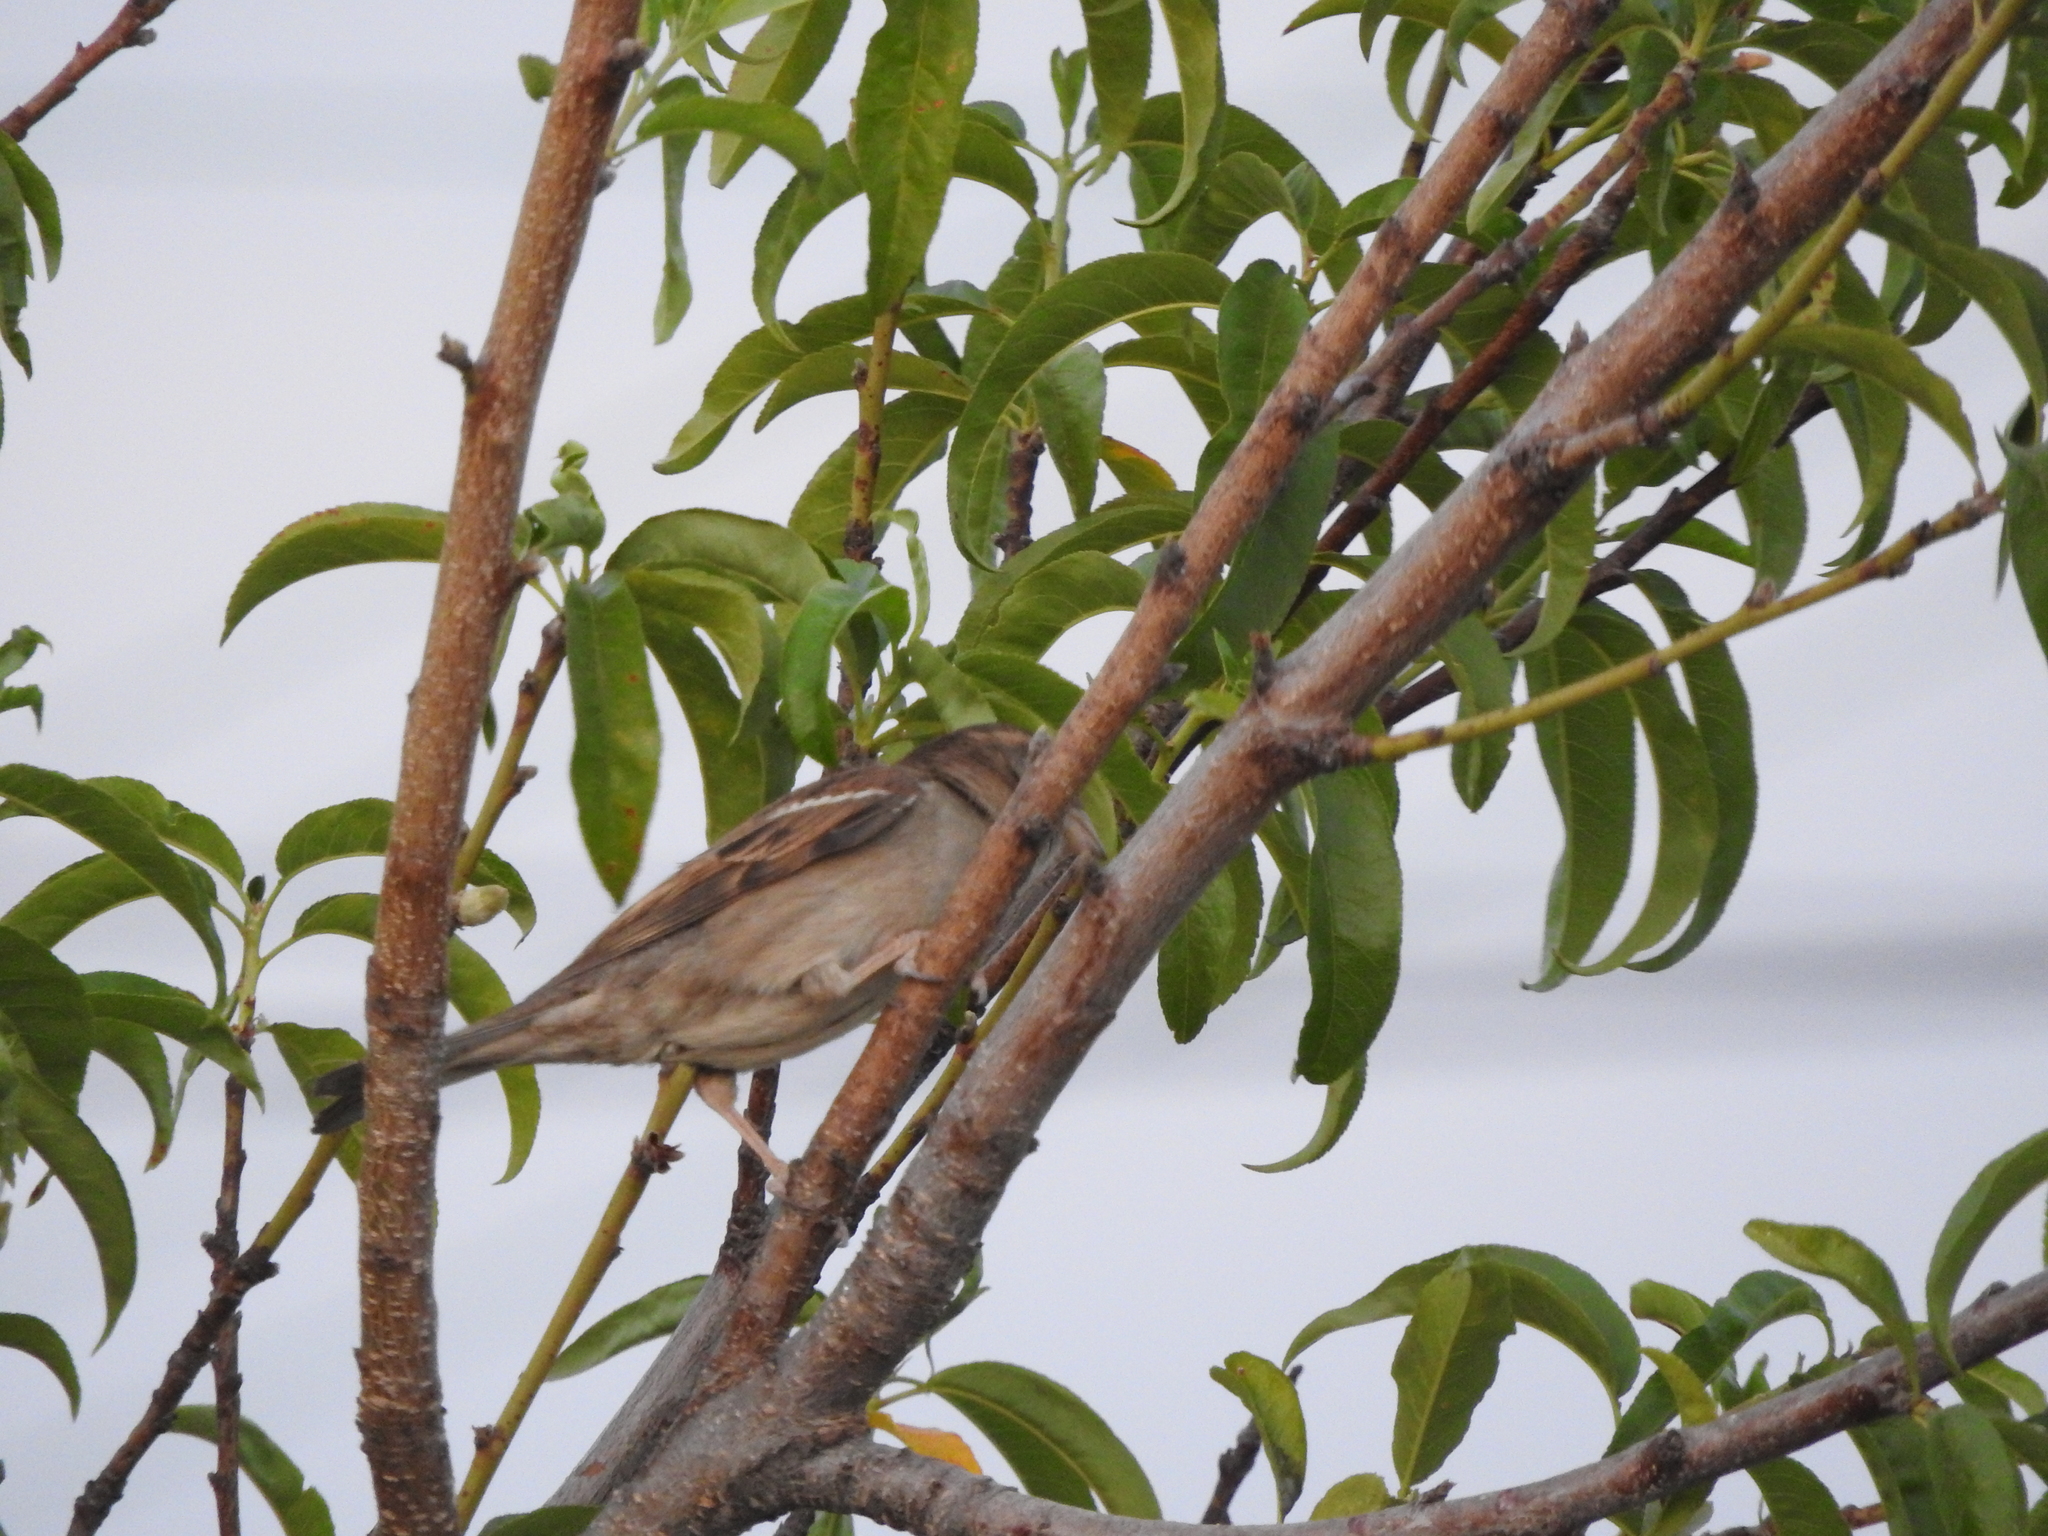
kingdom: Animalia
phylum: Chordata
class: Aves
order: Passeriformes
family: Passeridae
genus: Passer
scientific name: Passer domesticus
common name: House sparrow
